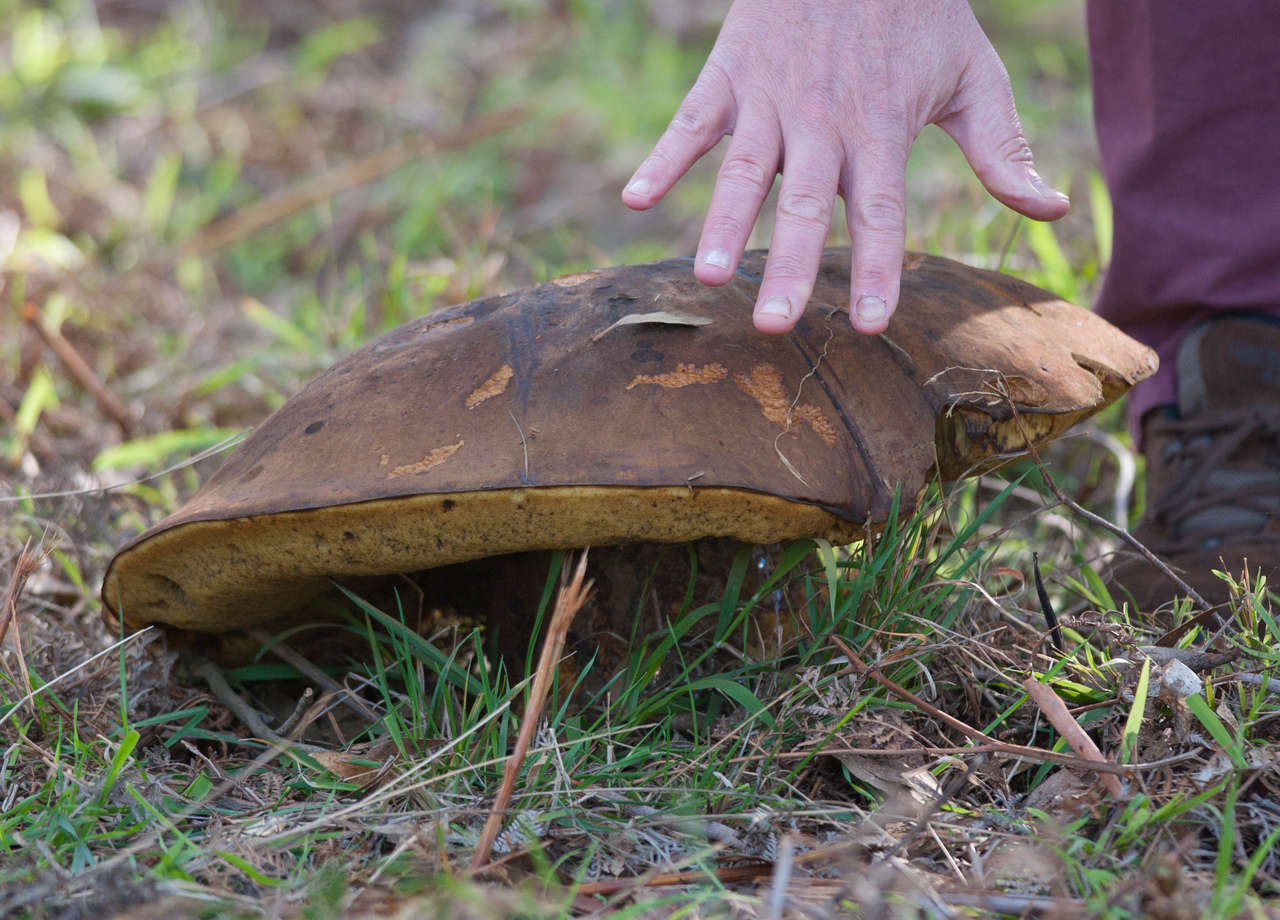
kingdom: Fungi
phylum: Basidiomycota
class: Agaricomycetes
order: Boletales
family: Boletinellaceae
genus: Phlebopus
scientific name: Phlebopus marginatus
